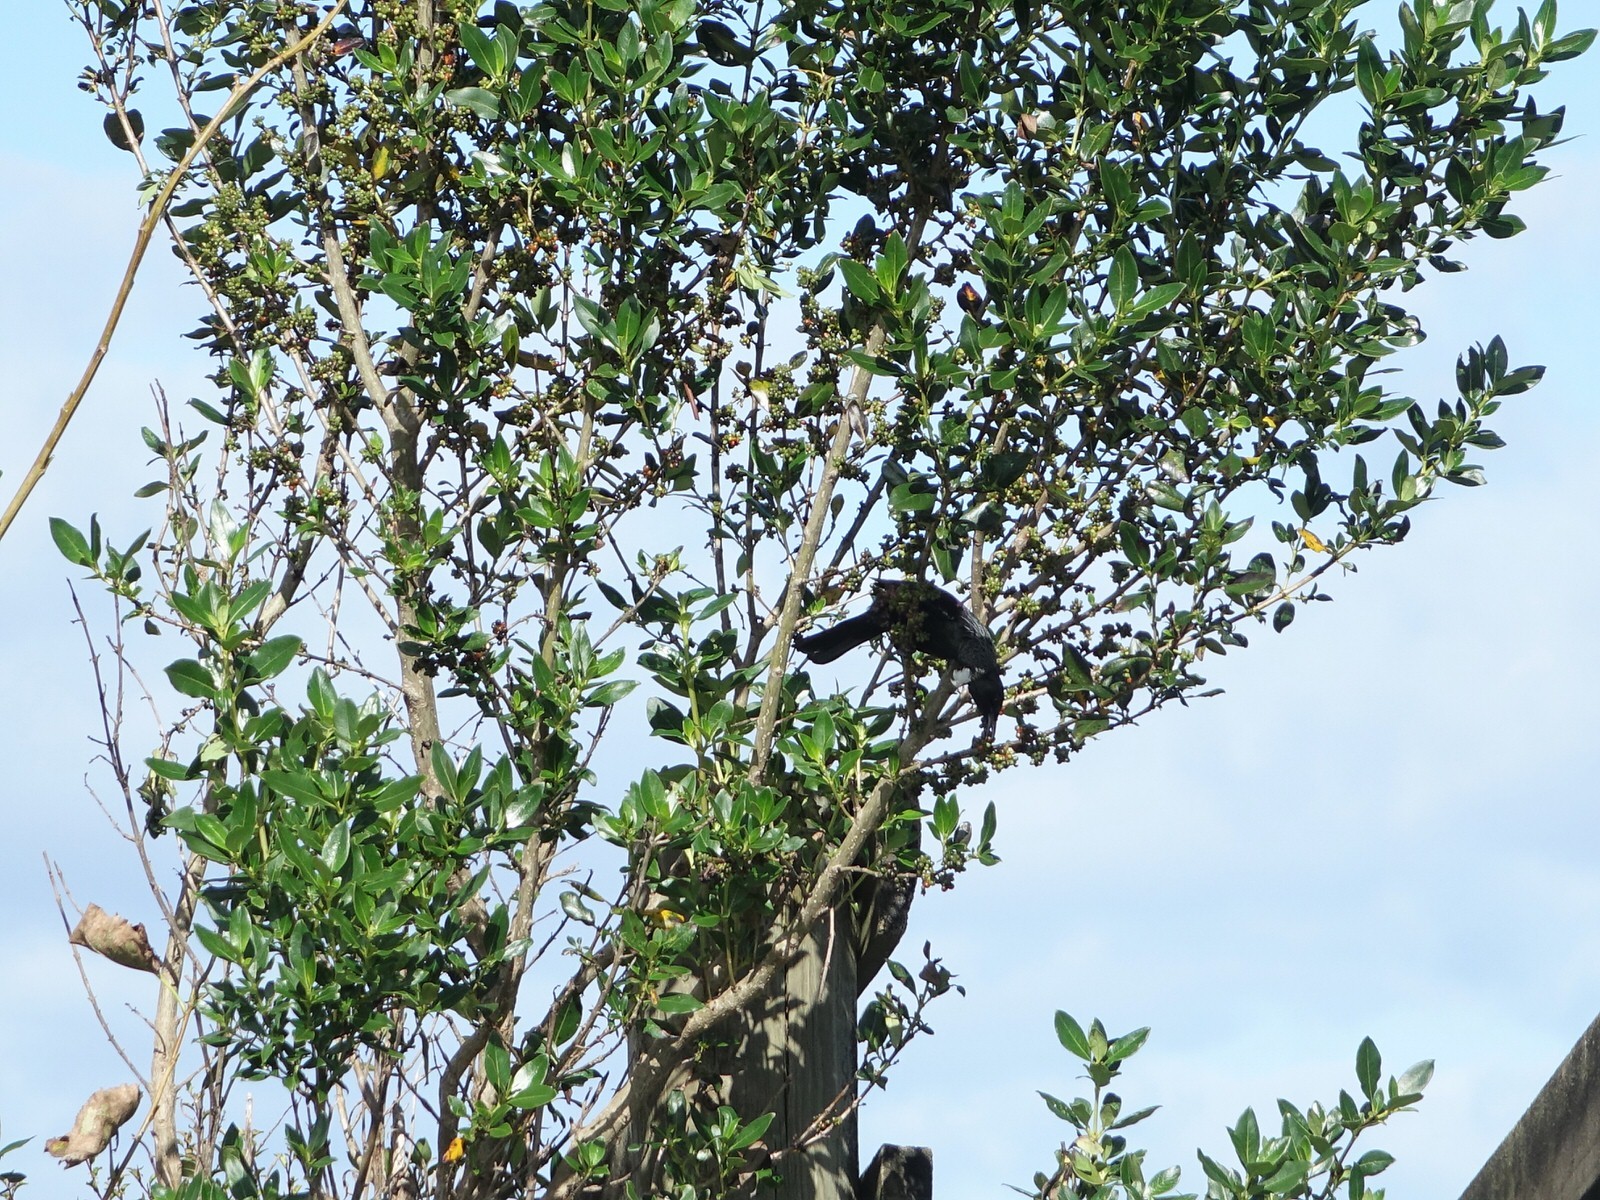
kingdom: Animalia
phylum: Chordata
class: Aves
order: Passeriformes
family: Meliphagidae
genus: Prosthemadera
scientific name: Prosthemadera novaeseelandiae
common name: Tui
